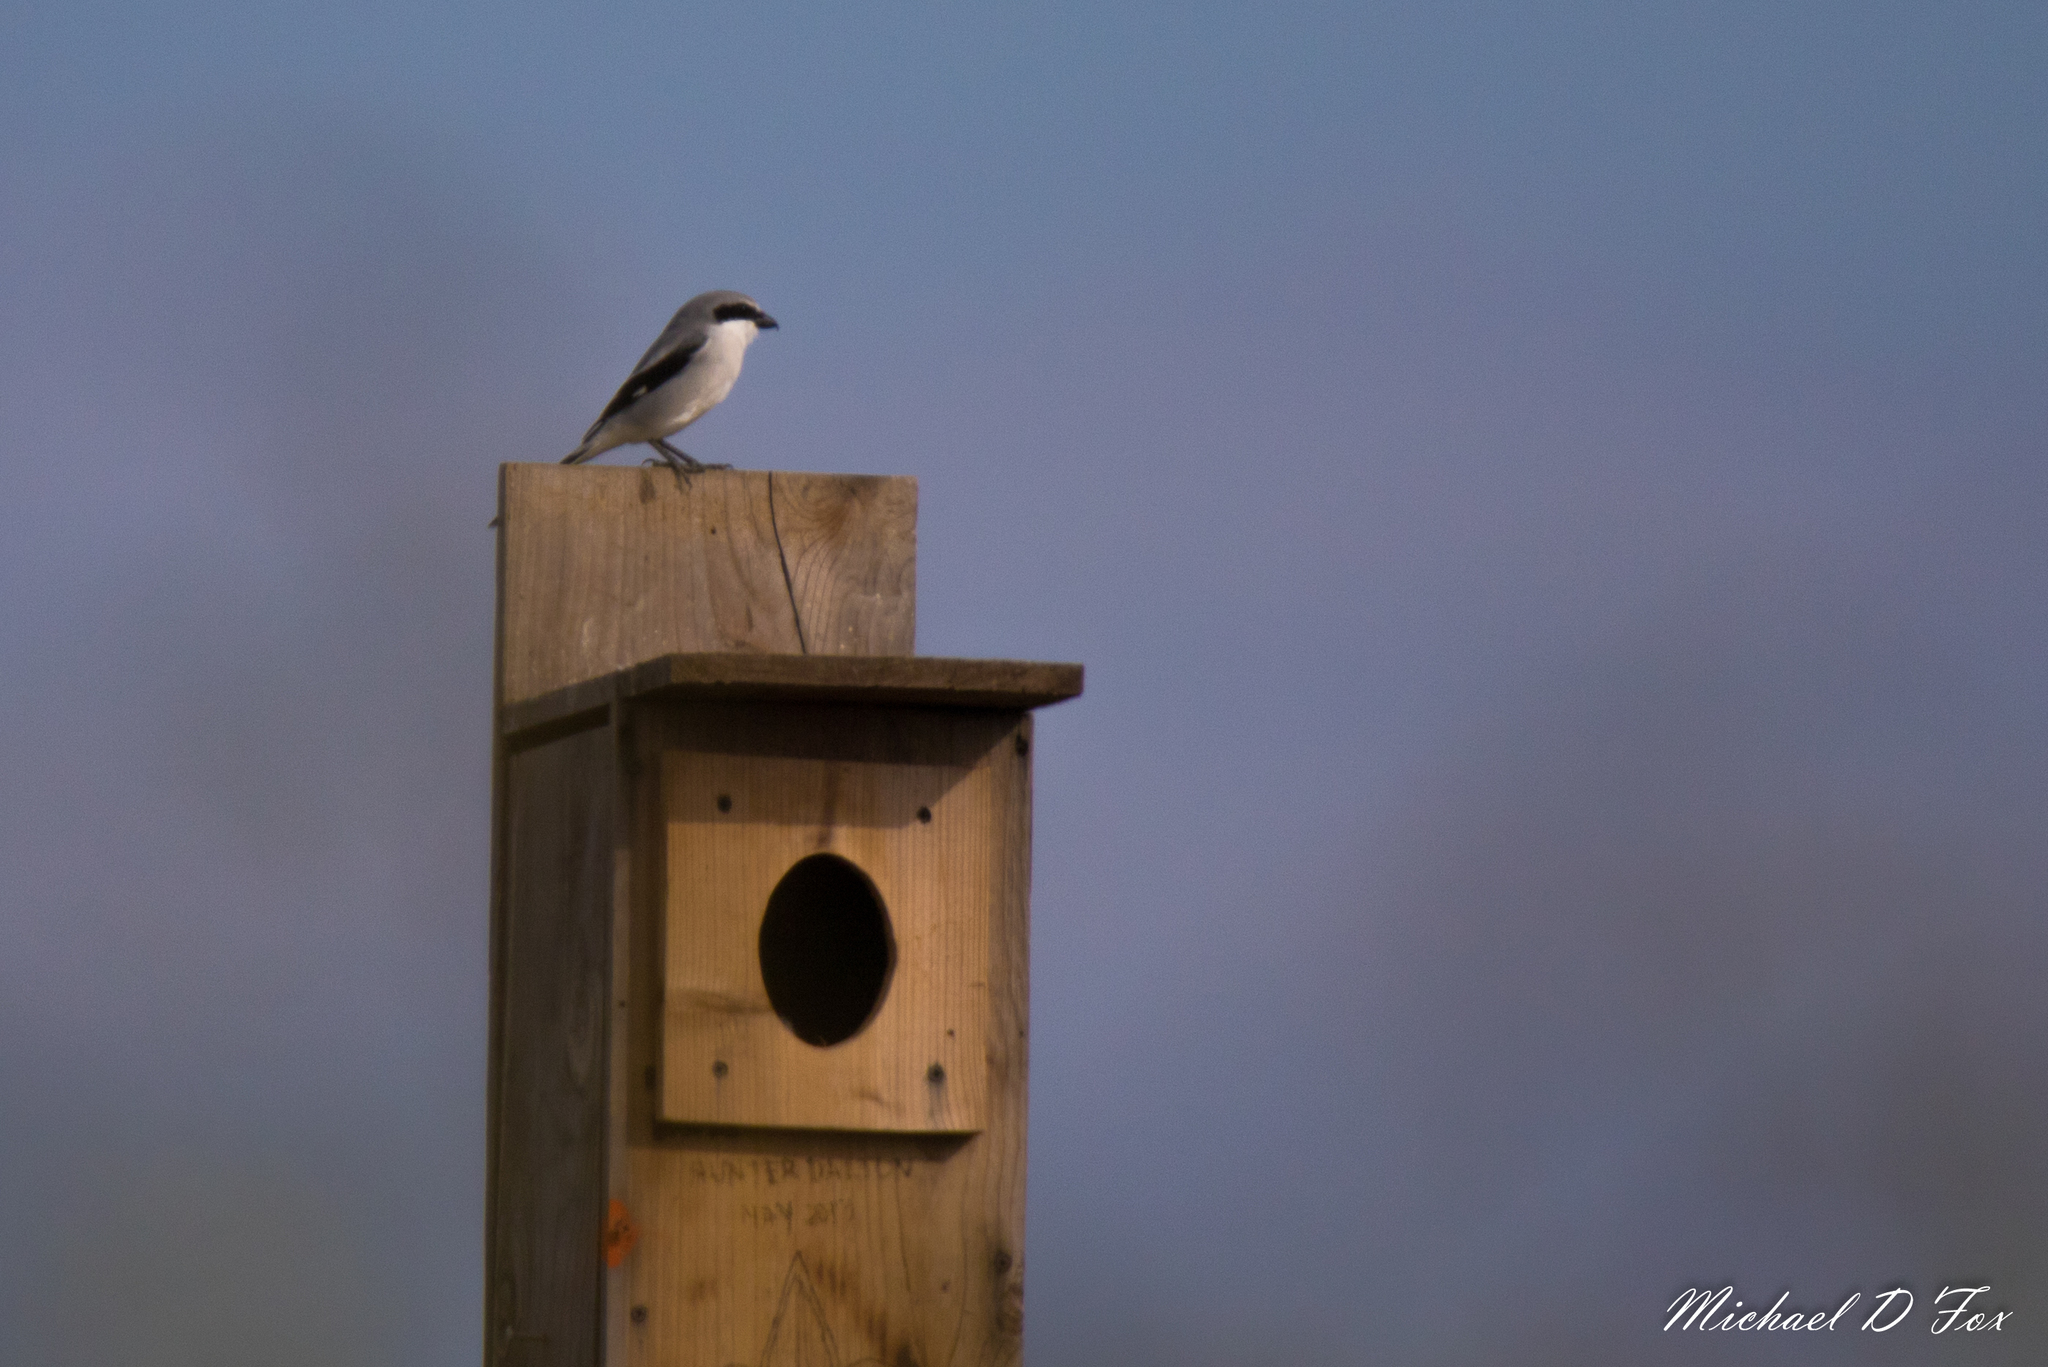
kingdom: Animalia
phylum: Chordata
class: Aves
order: Passeriformes
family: Laniidae
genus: Lanius
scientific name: Lanius ludovicianus
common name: Loggerhead shrike
